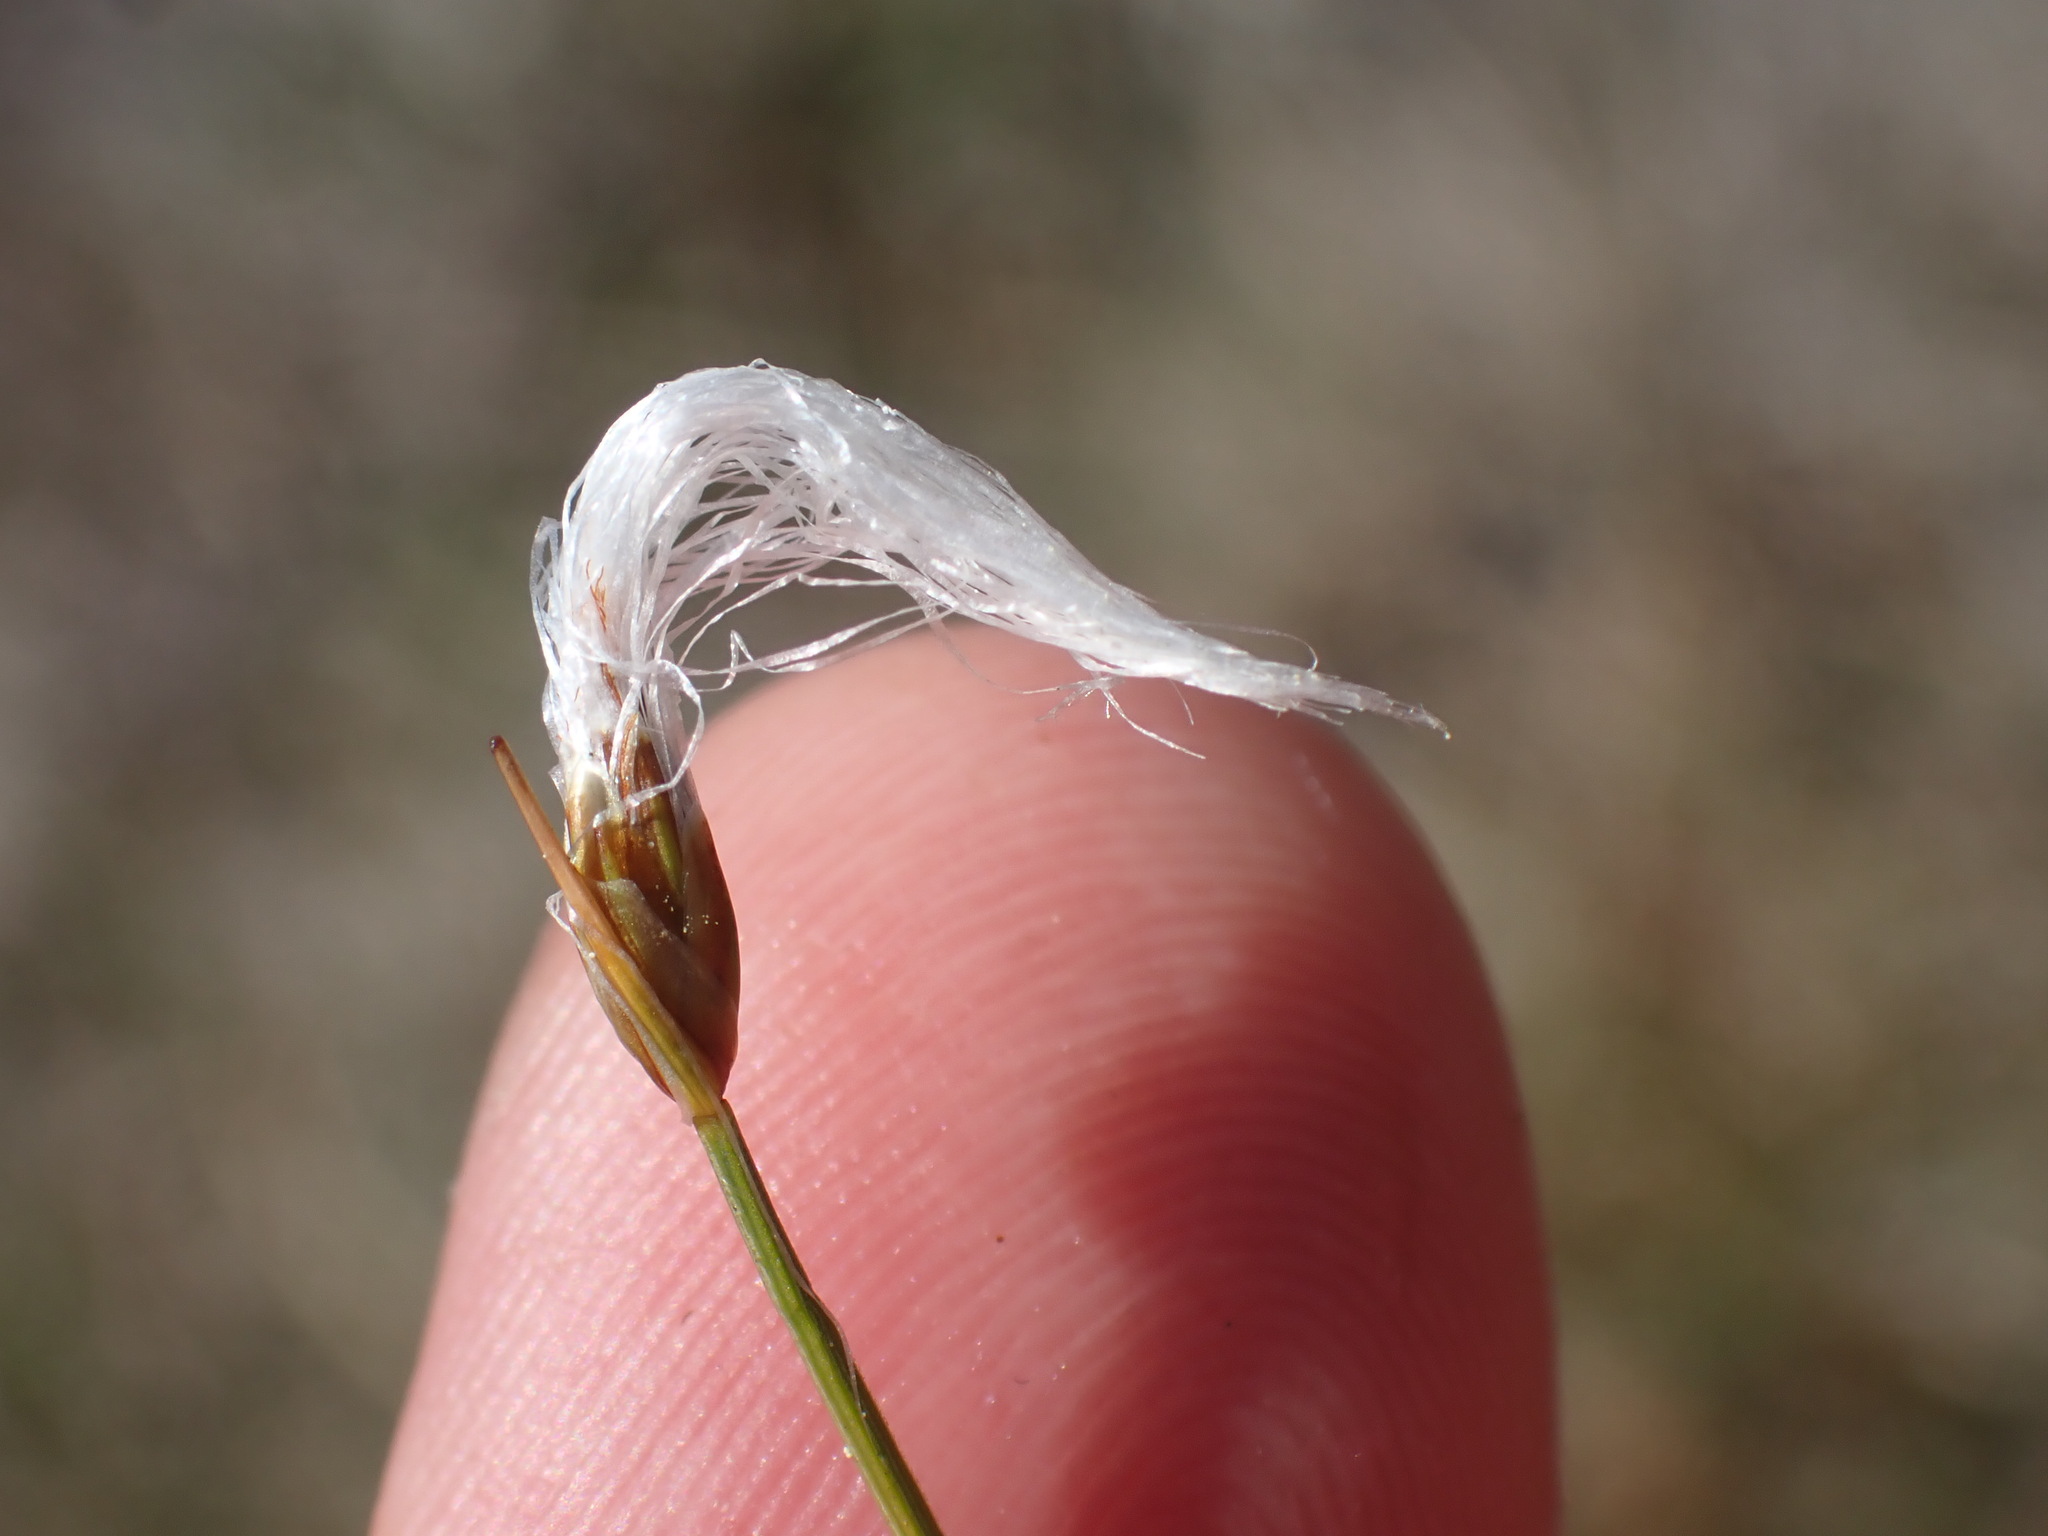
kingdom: Plantae
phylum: Tracheophyta
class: Liliopsida
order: Poales
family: Cyperaceae
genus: Trichophorum
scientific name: Trichophorum alpinum
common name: Alpine bulrush
